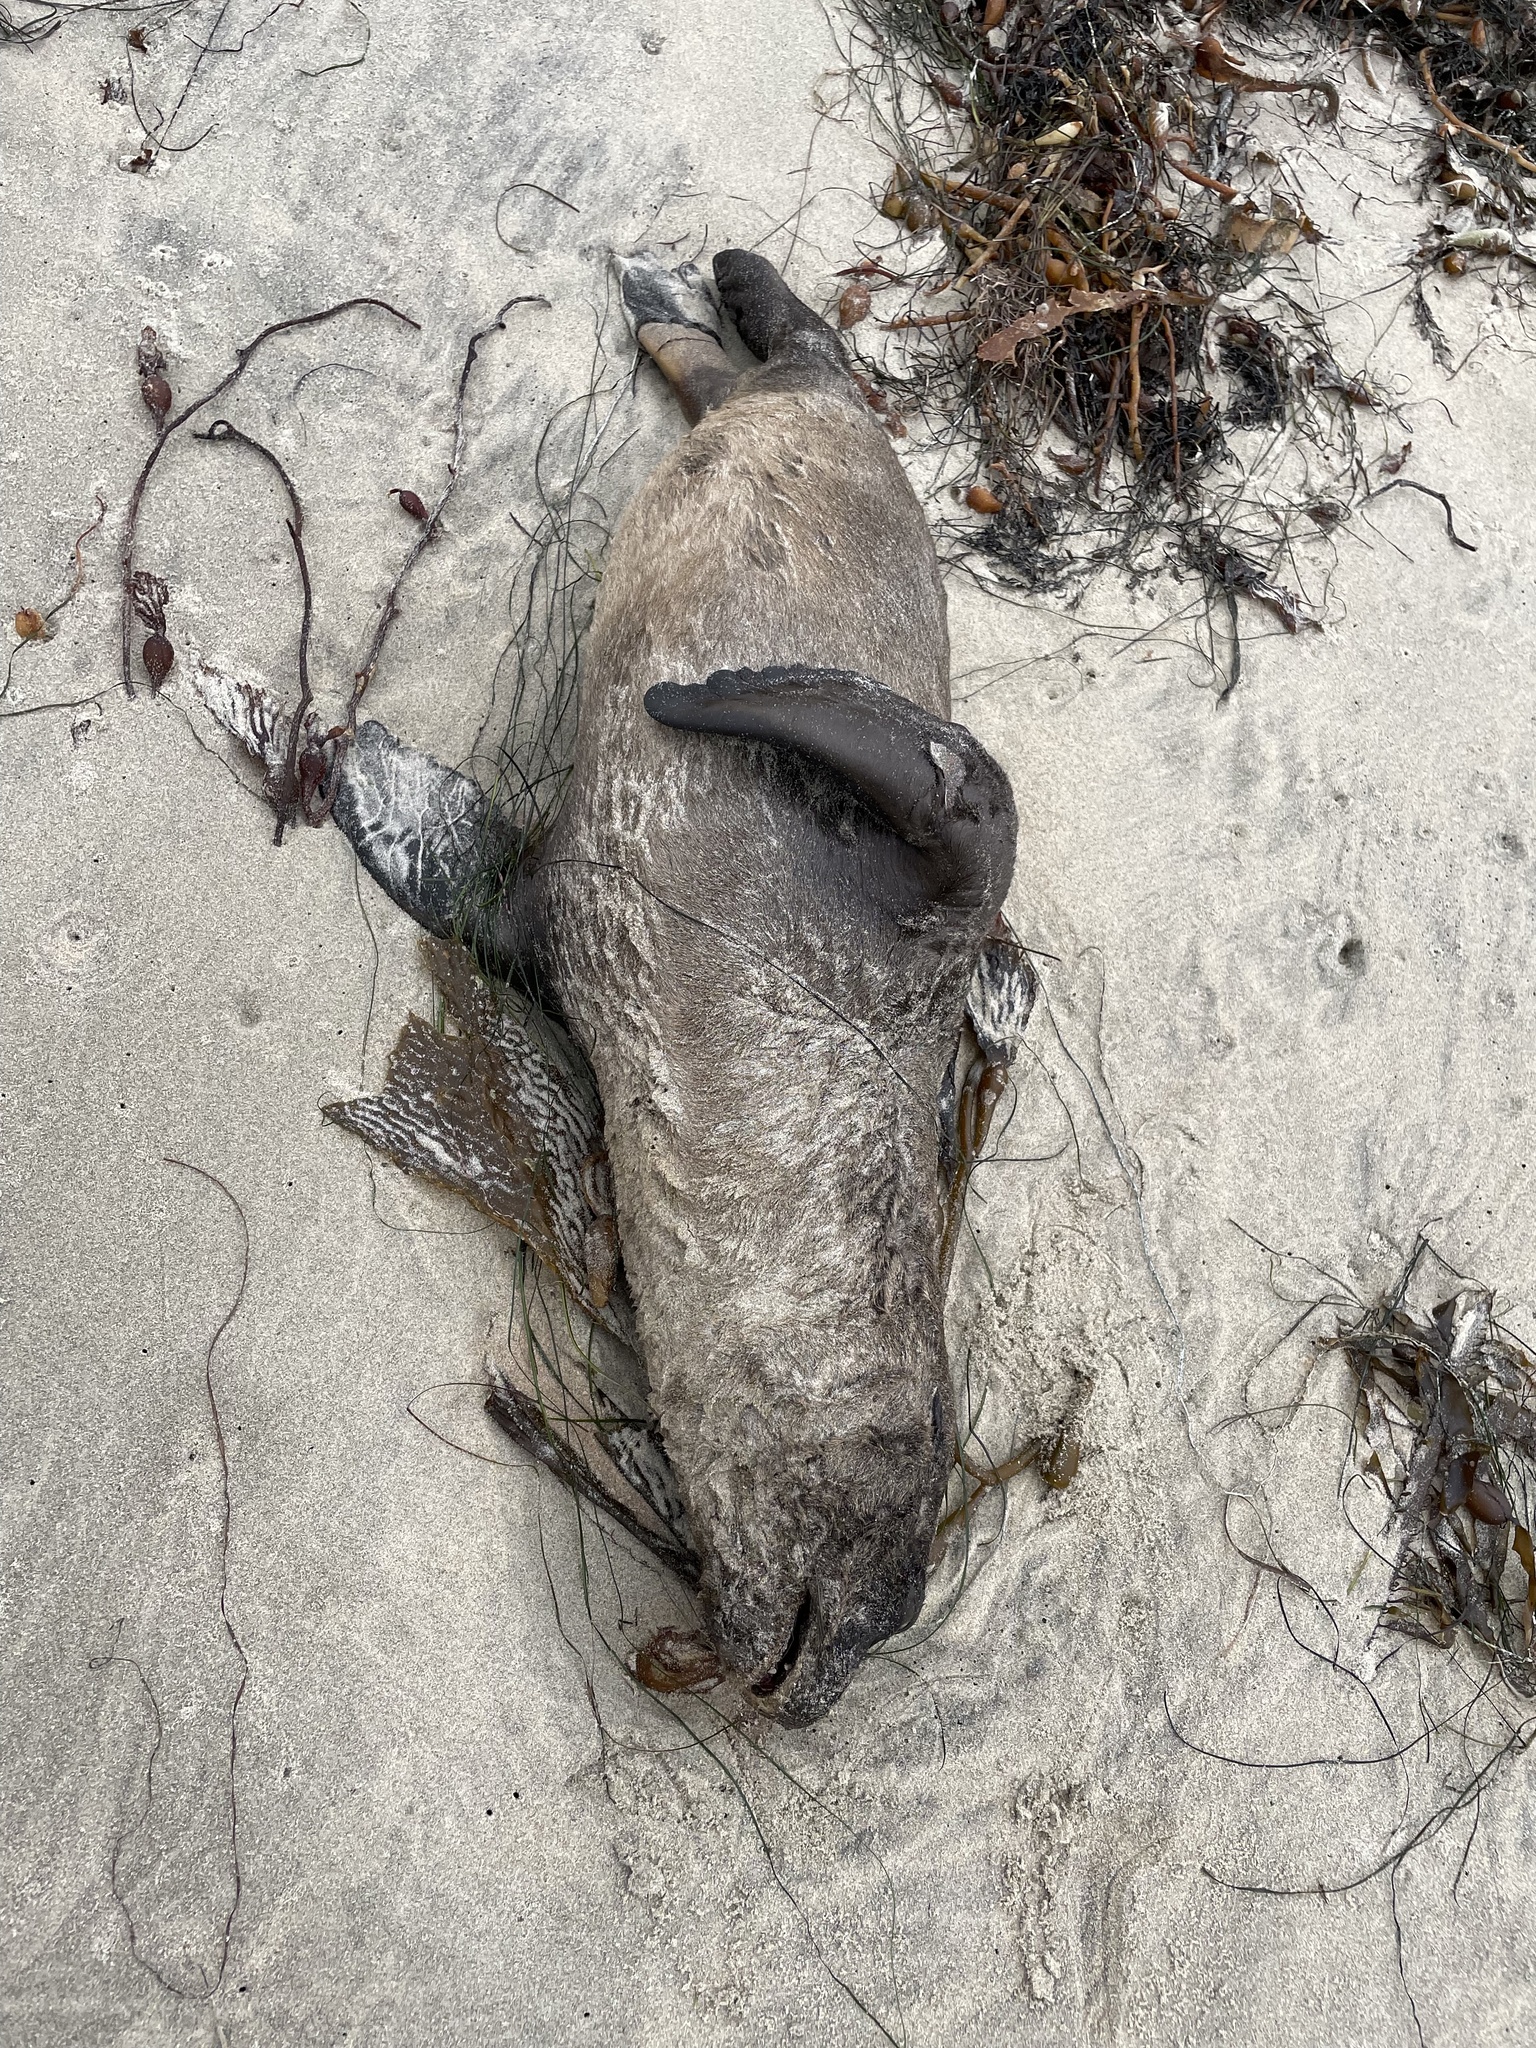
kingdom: Animalia
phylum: Chordata
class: Mammalia
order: Carnivora
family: Otariidae
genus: Zalophus
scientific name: Zalophus californianus
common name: California sea lion
